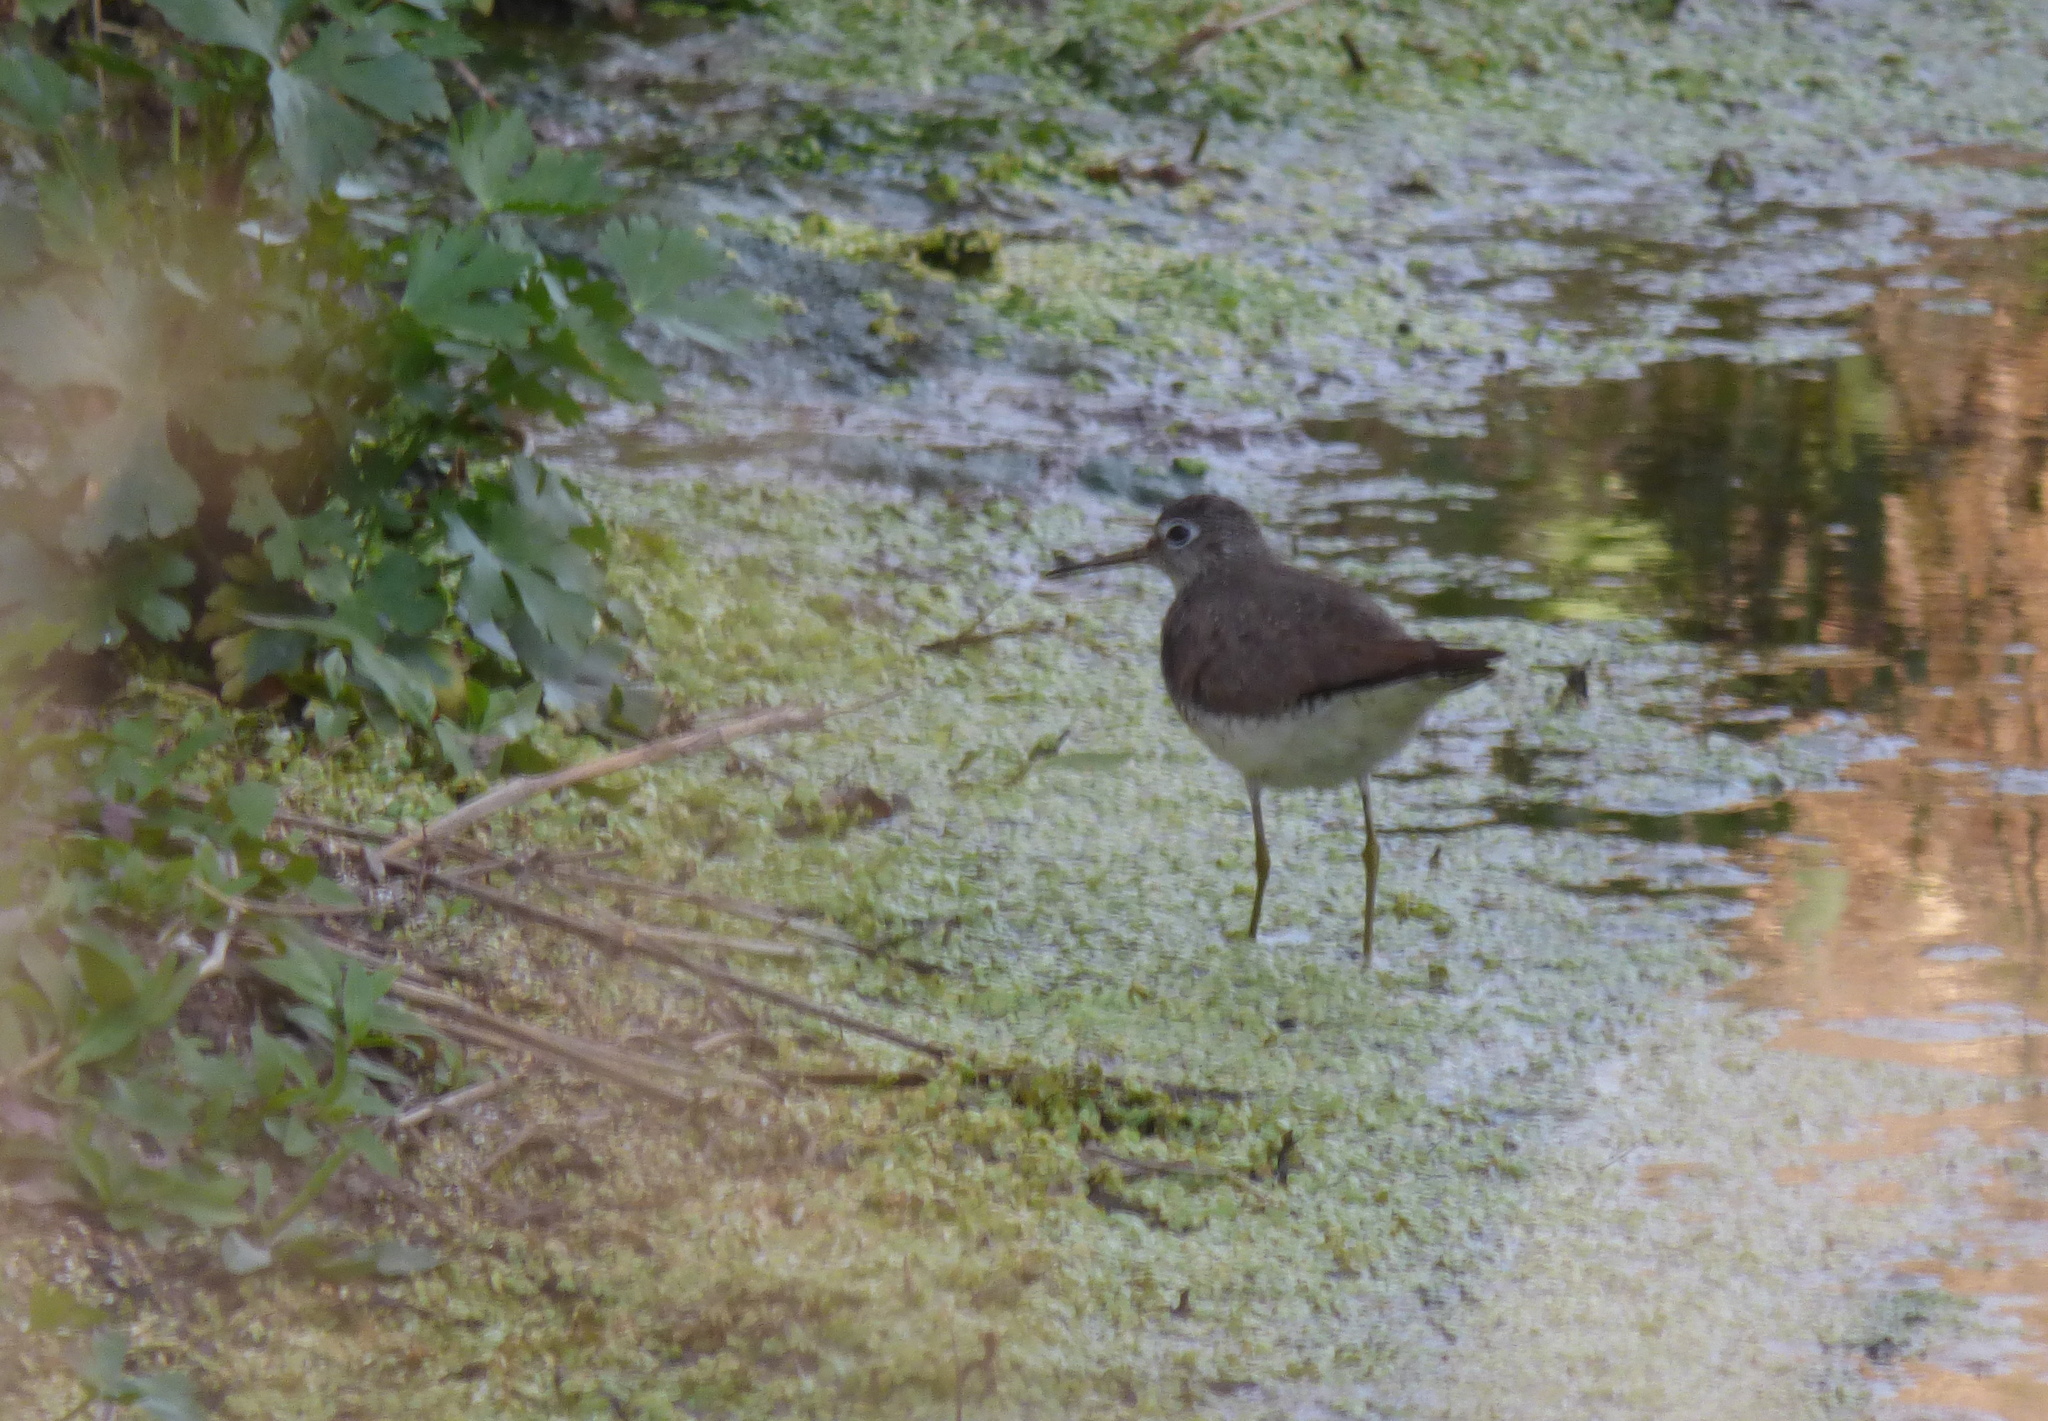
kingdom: Animalia
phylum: Chordata
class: Aves
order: Charadriiformes
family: Scolopacidae
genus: Tringa
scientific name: Tringa solitaria
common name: Solitary sandpiper
